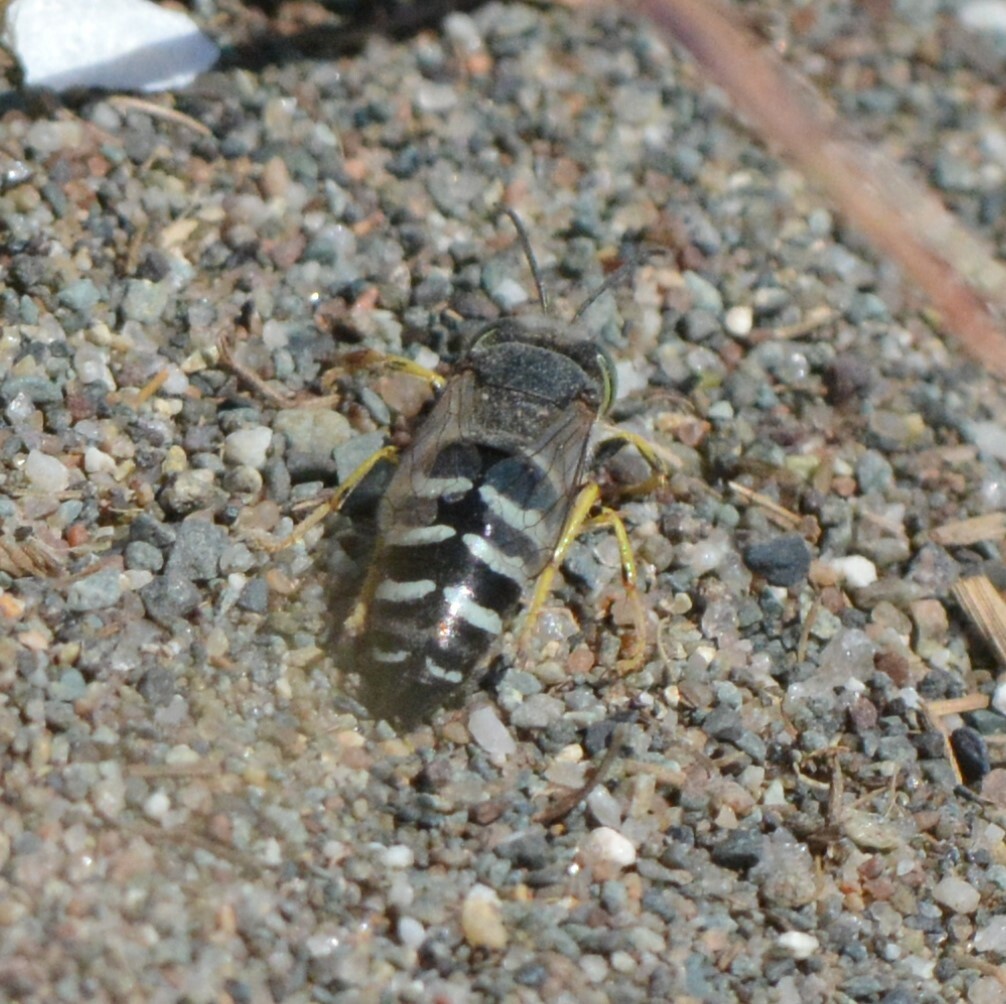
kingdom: Animalia
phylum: Arthropoda
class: Insecta
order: Hymenoptera
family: Crabronidae
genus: Bembix
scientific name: Bembix americana
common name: American sand wasp
